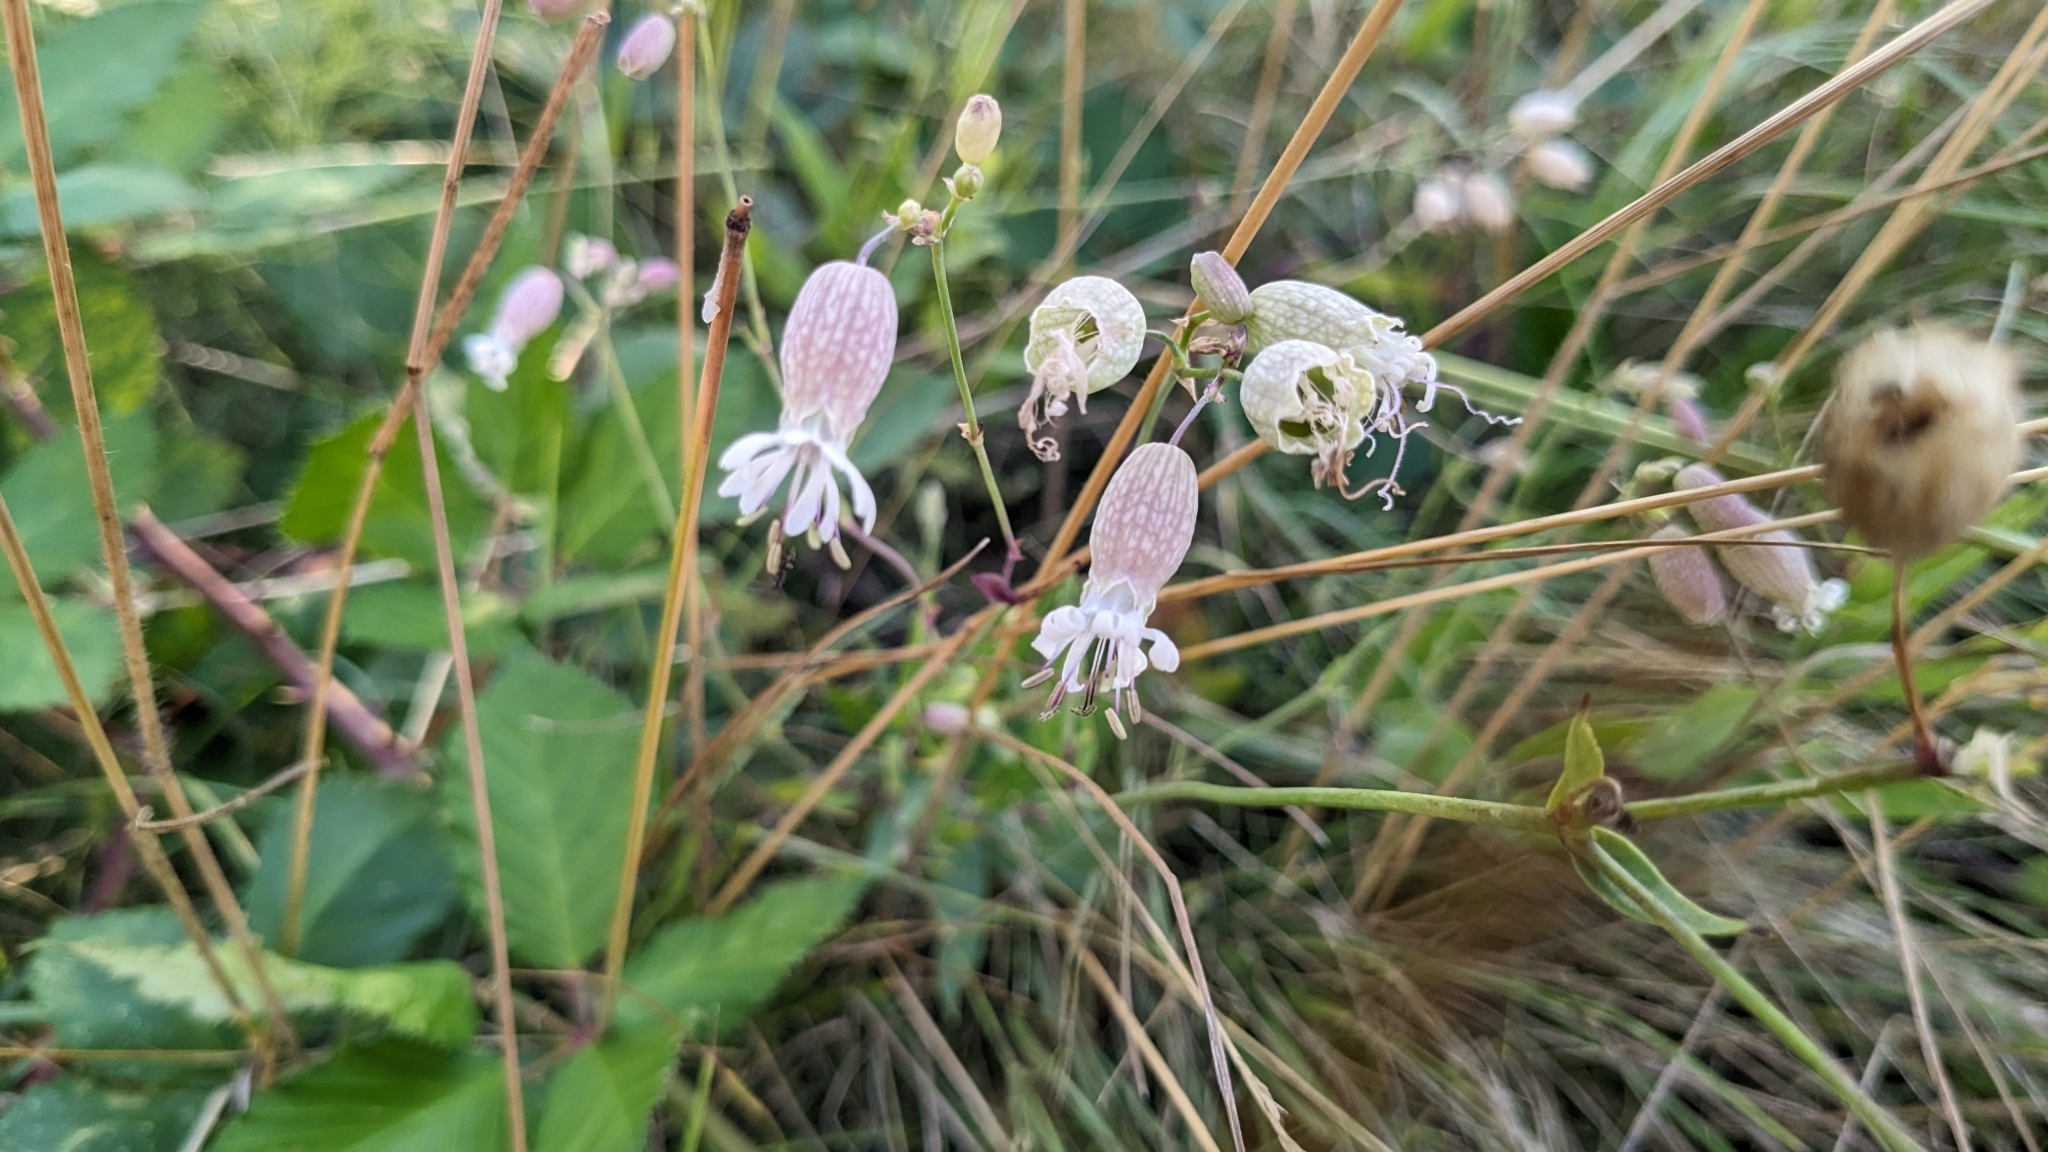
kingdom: Plantae
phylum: Tracheophyta
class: Magnoliopsida
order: Caryophyllales
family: Caryophyllaceae
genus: Silene
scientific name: Silene vulgaris
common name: Bladder campion
